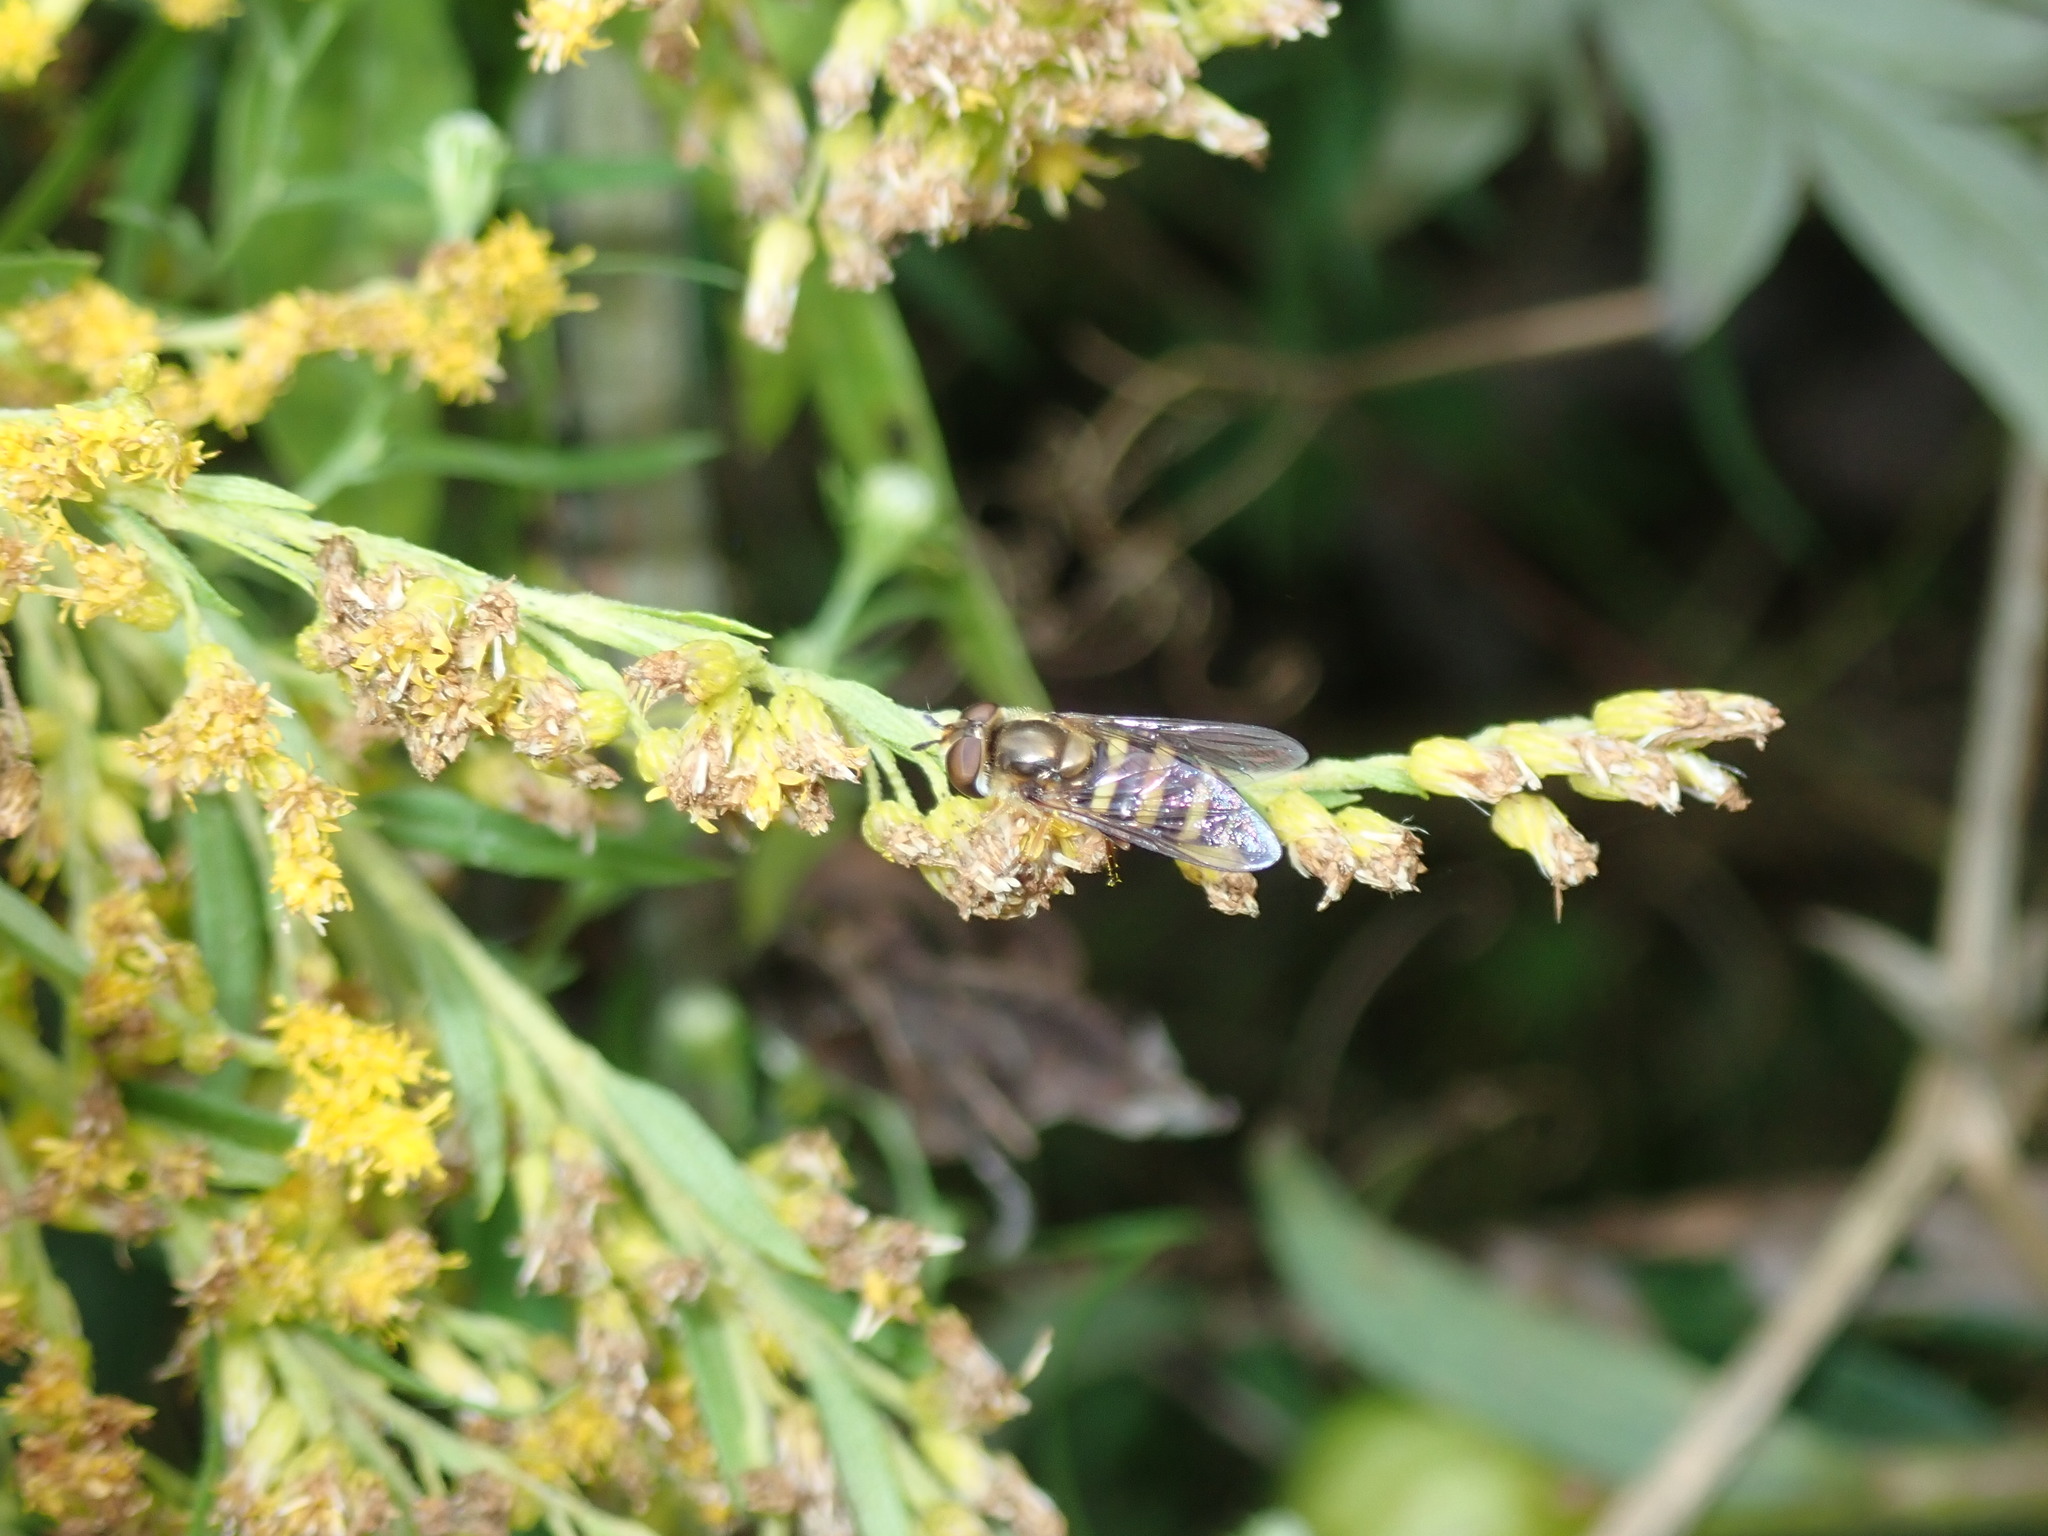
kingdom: Animalia
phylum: Arthropoda
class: Insecta
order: Diptera
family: Syrphidae
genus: Eupeodes
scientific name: Eupeodes
